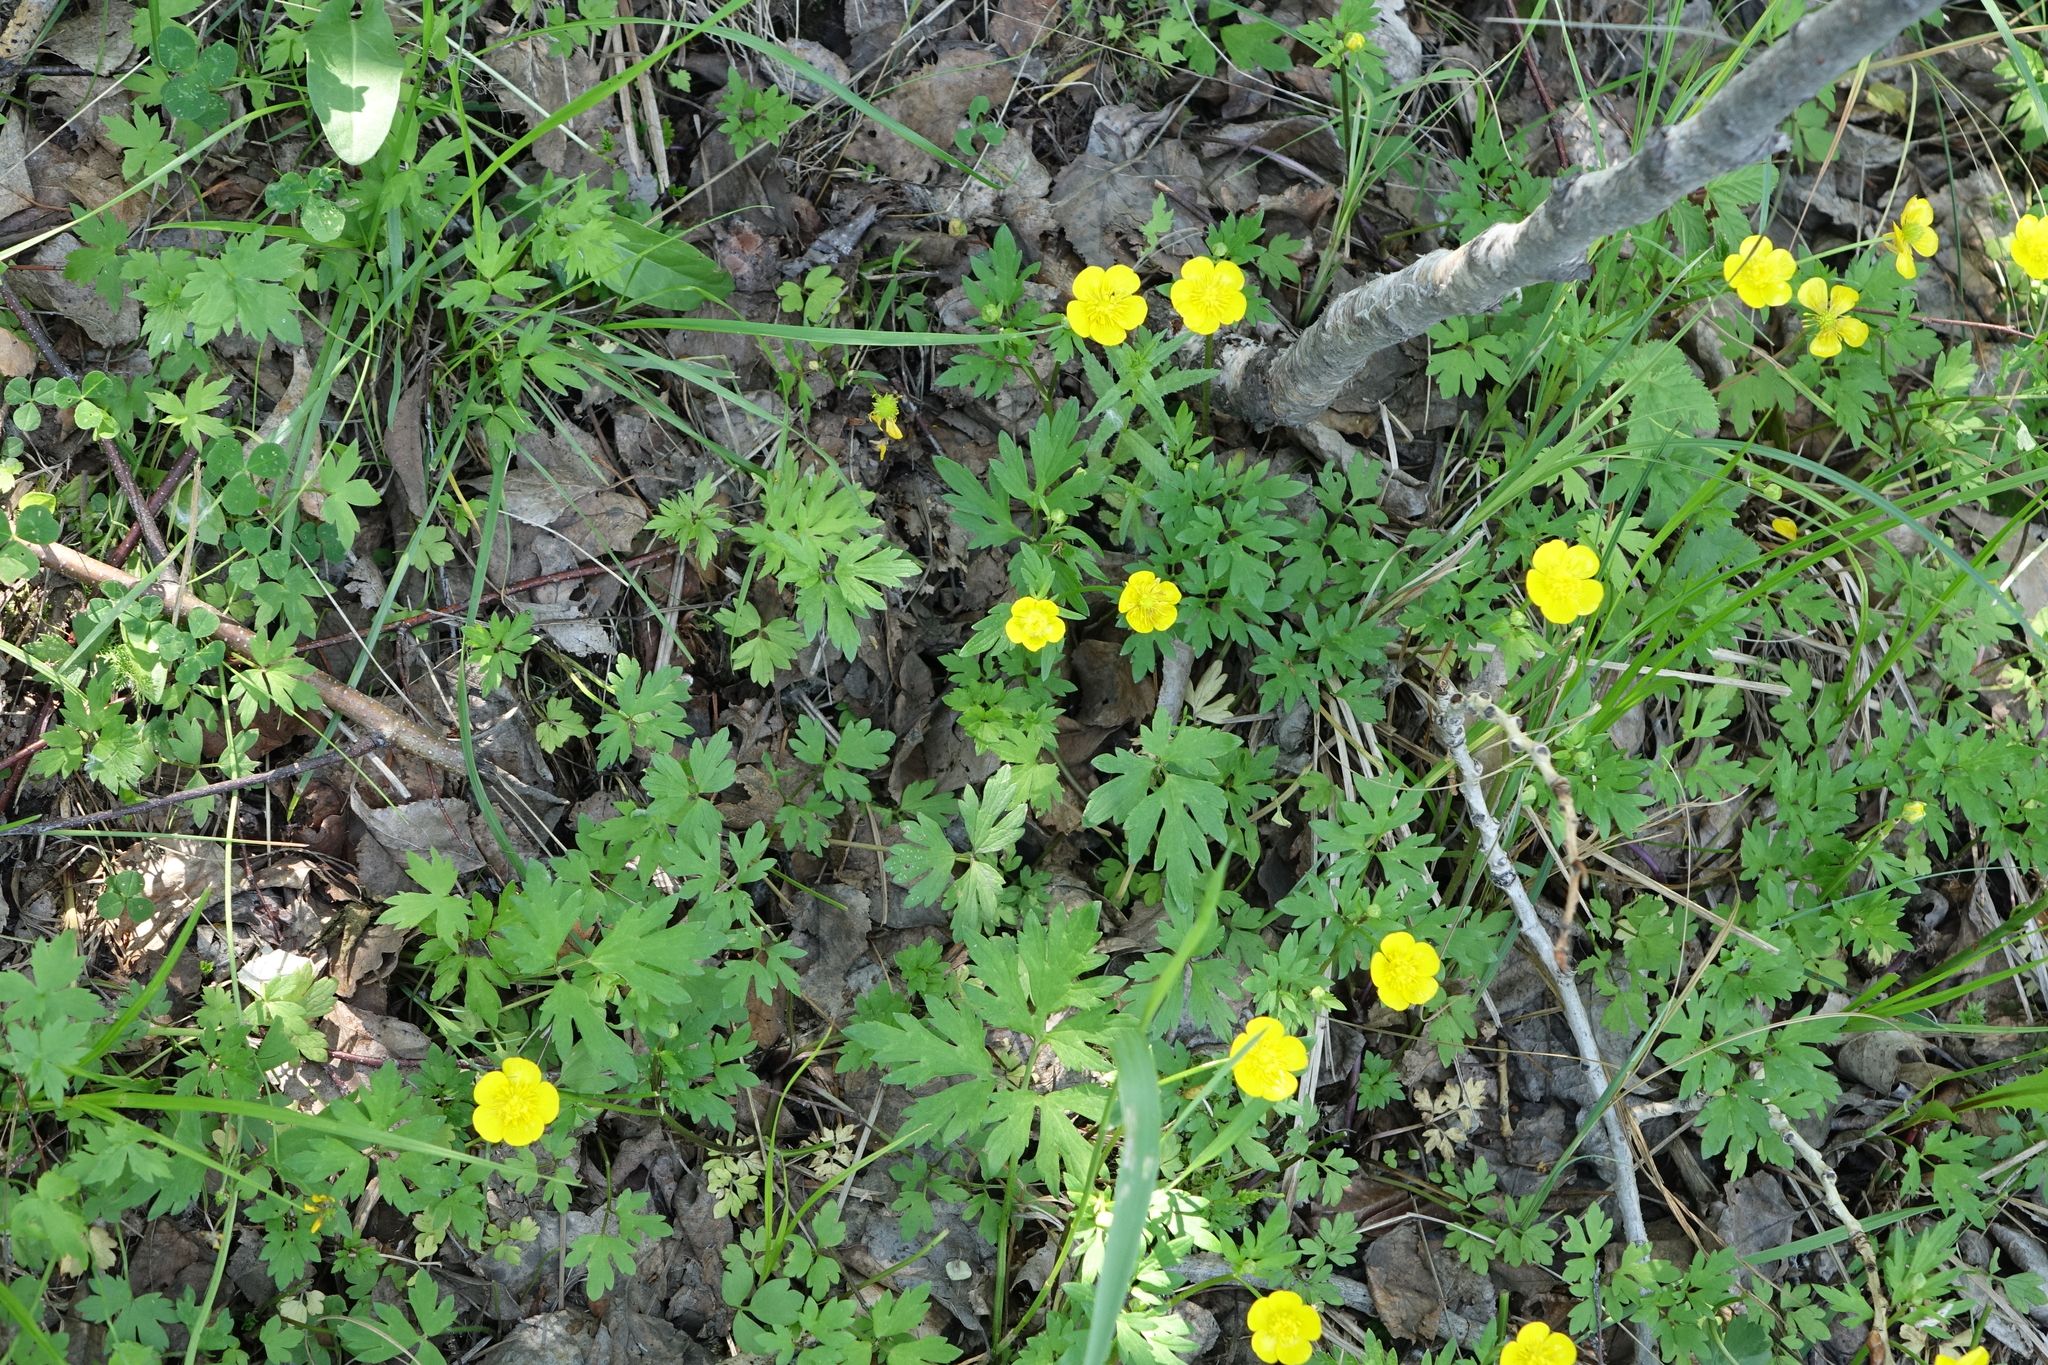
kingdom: Plantae
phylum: Tracheophyta
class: Magnoliopsida
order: Ranunculales
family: Ranunculaceae
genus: Ranunculus
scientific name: Ranunculus repens
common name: Creeping buttercup
